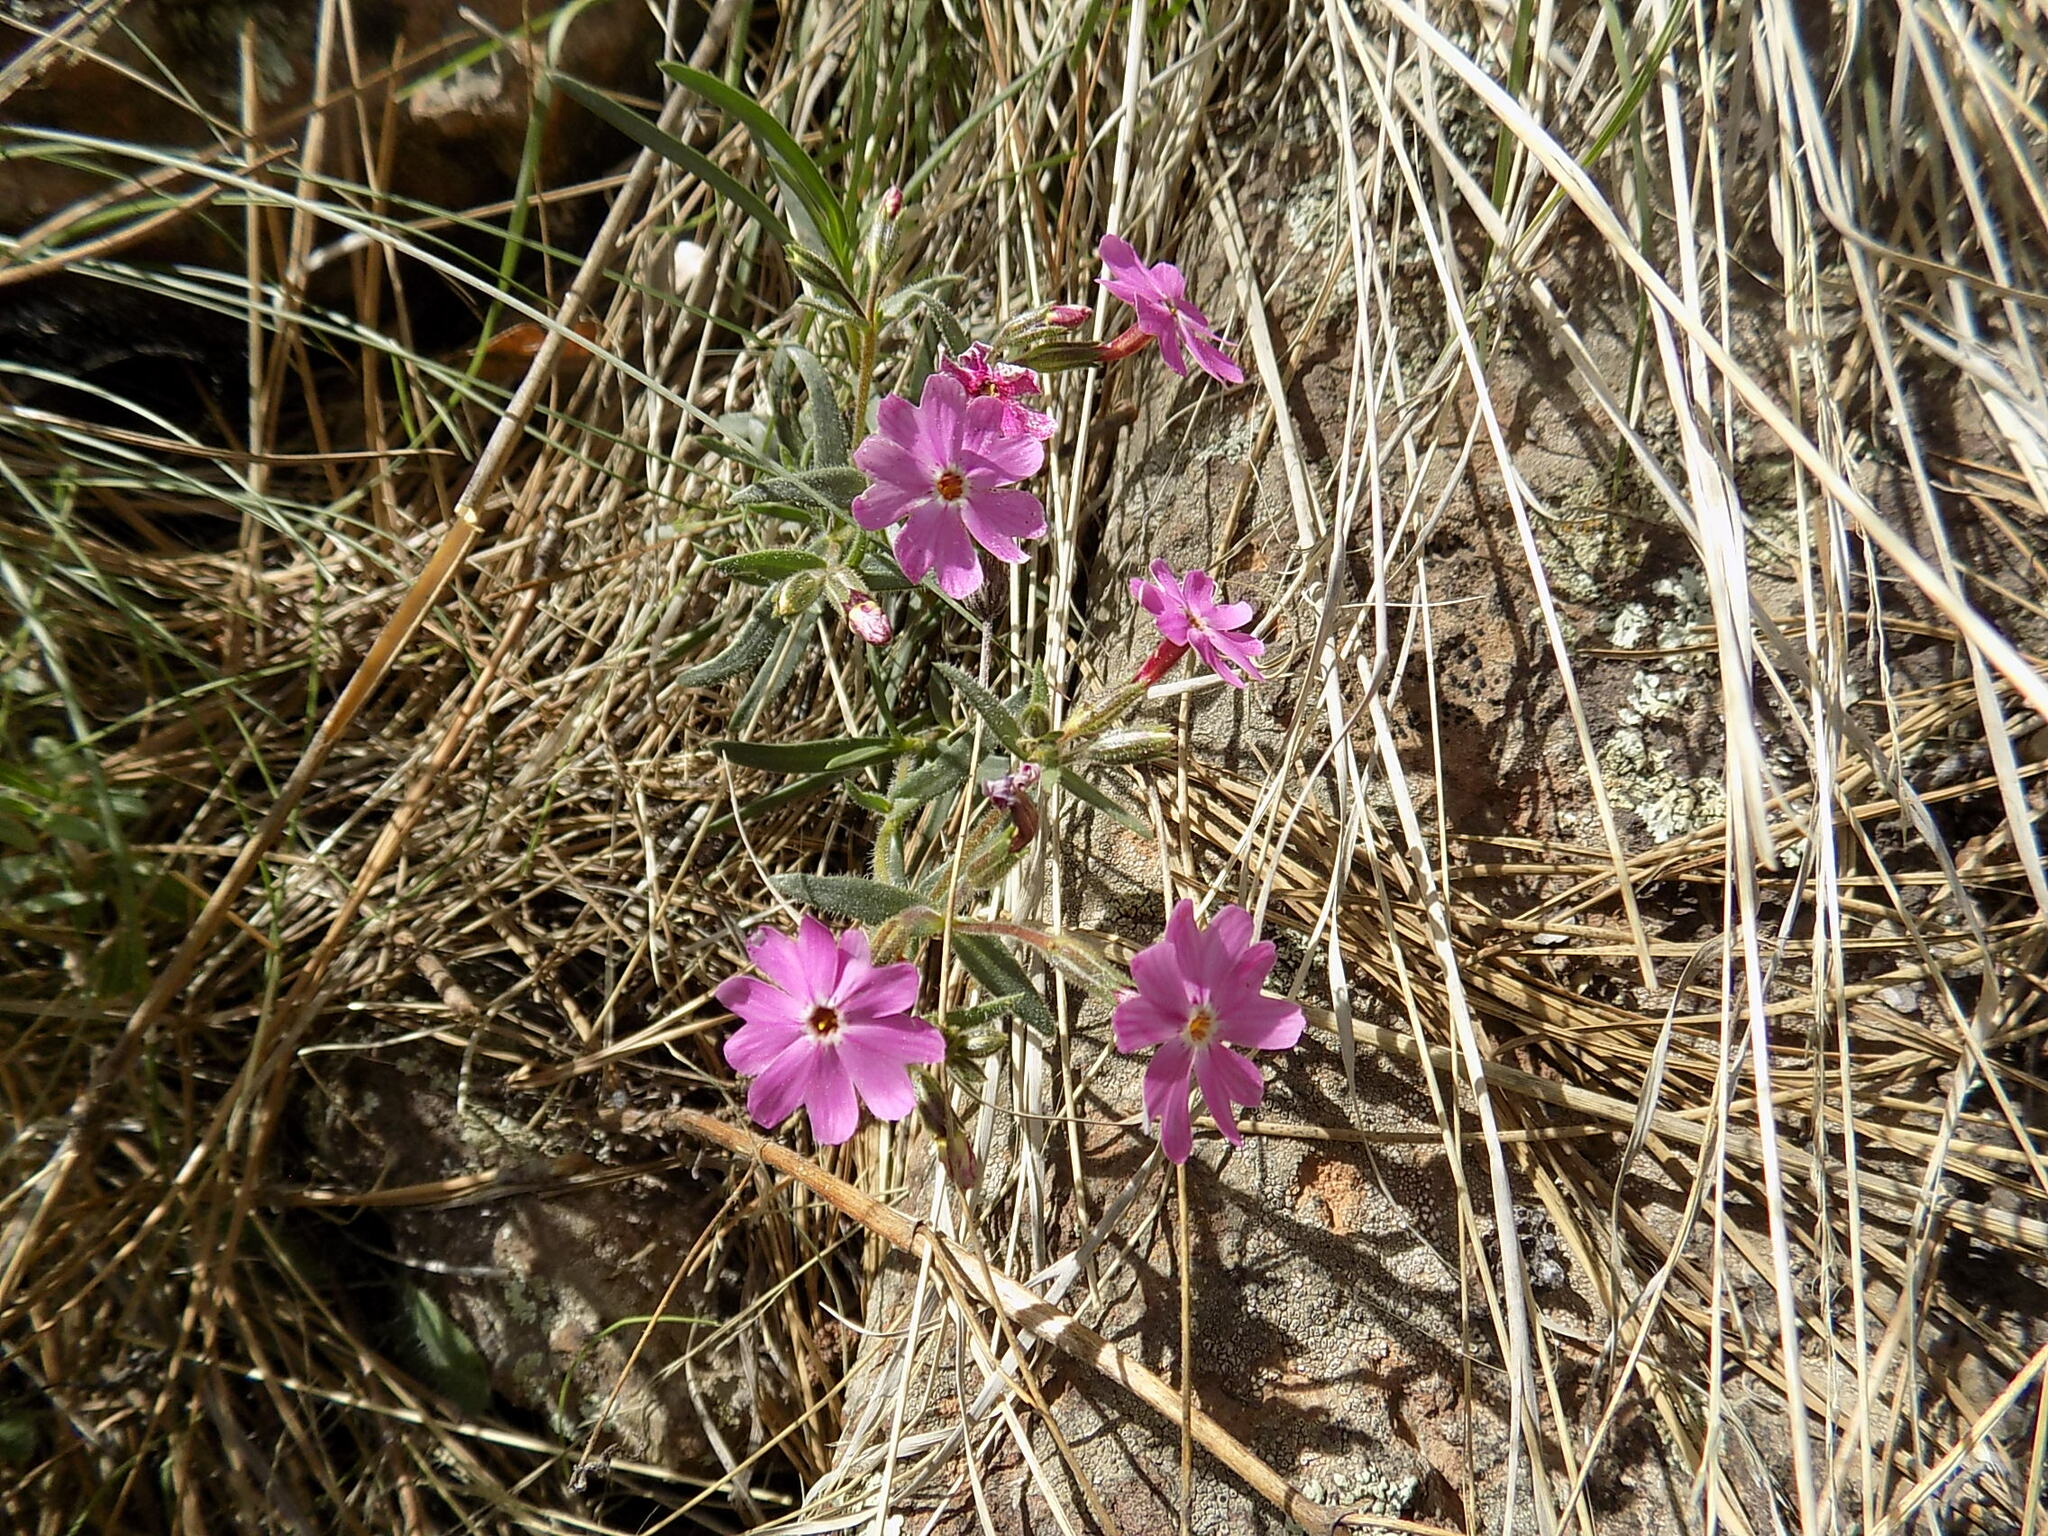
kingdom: Plantae
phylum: Tracheophyta
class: Magnoliopsida
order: Ericales
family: Polemoniaceae
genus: Phlox
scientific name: Phlox amabilis
